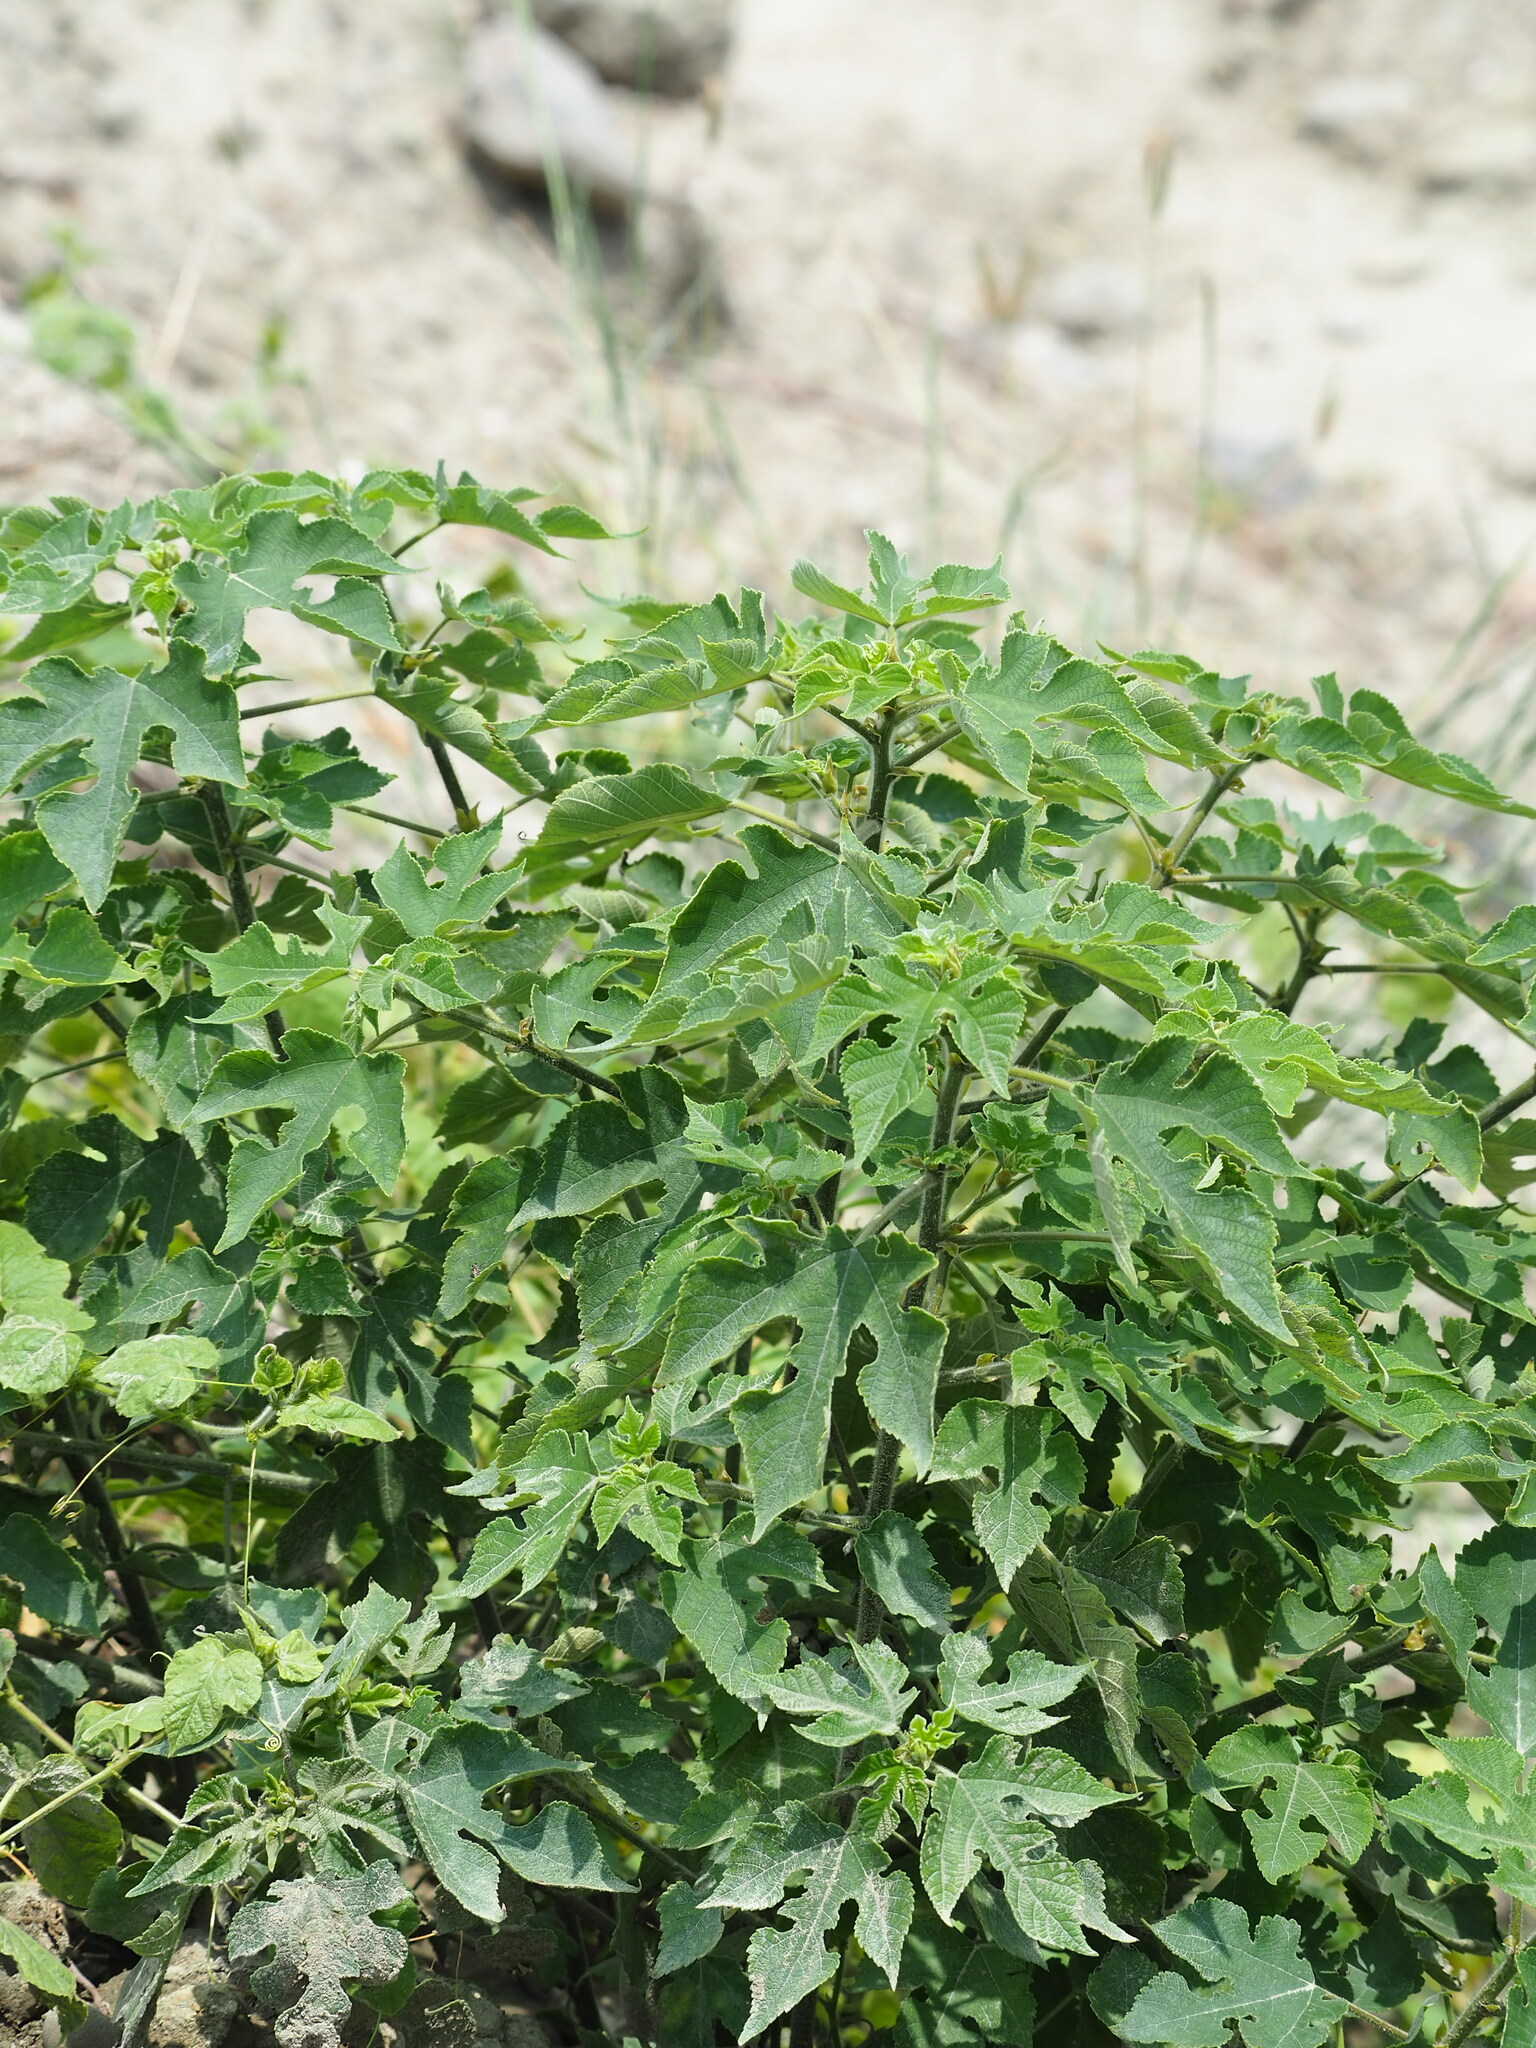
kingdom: Plantae
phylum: Tracheophyta
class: Magnoliopsida
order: Rosales
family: Moraceae
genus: Broussonetia
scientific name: Broussonetia papyrifera
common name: Paper mulberry
